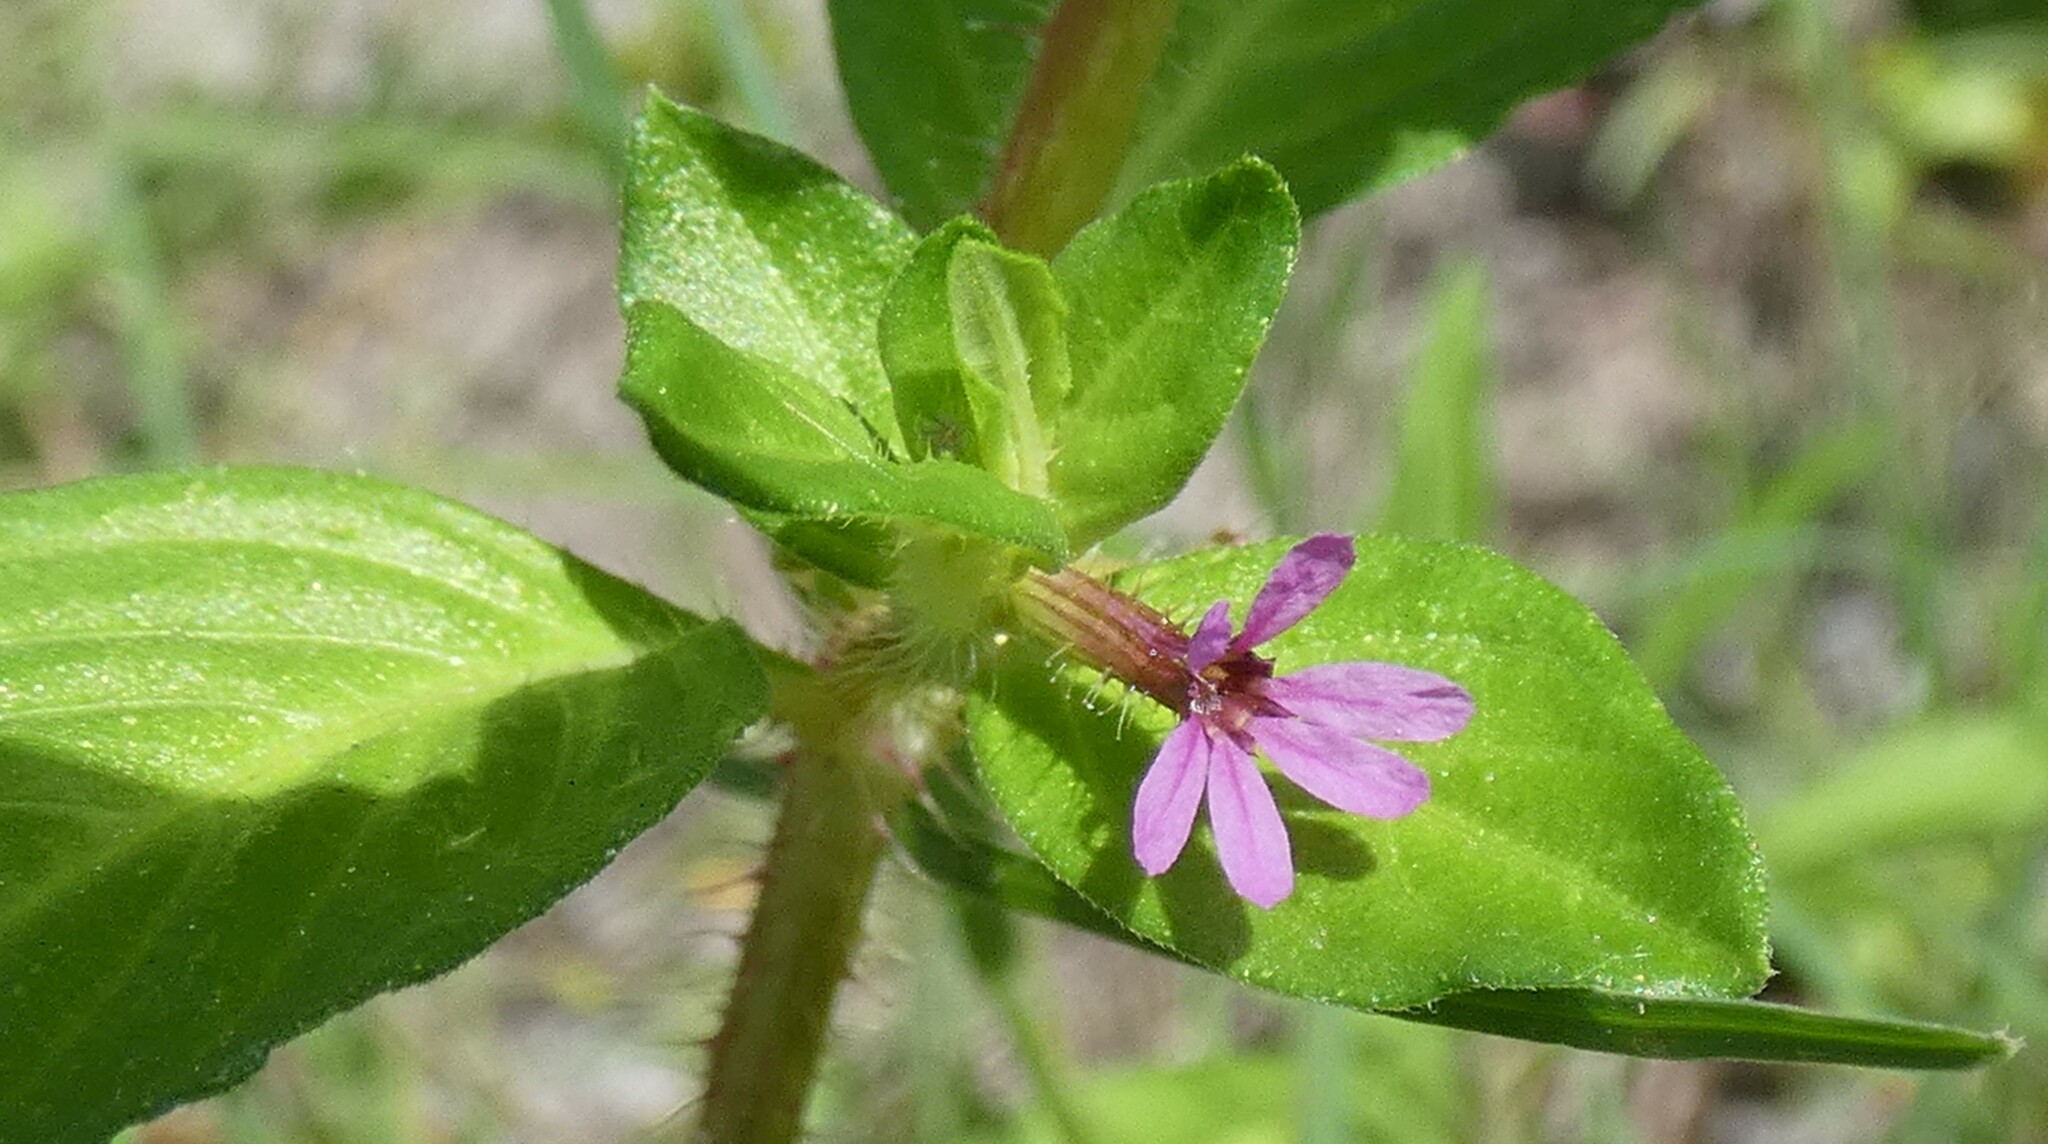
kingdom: Plantae
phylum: Tracheophyta
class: Magnoliopsida
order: Myrtales
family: Lythraceae
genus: Cuphea
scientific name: Cuphea carthagenensis
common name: Colombian waxweed
